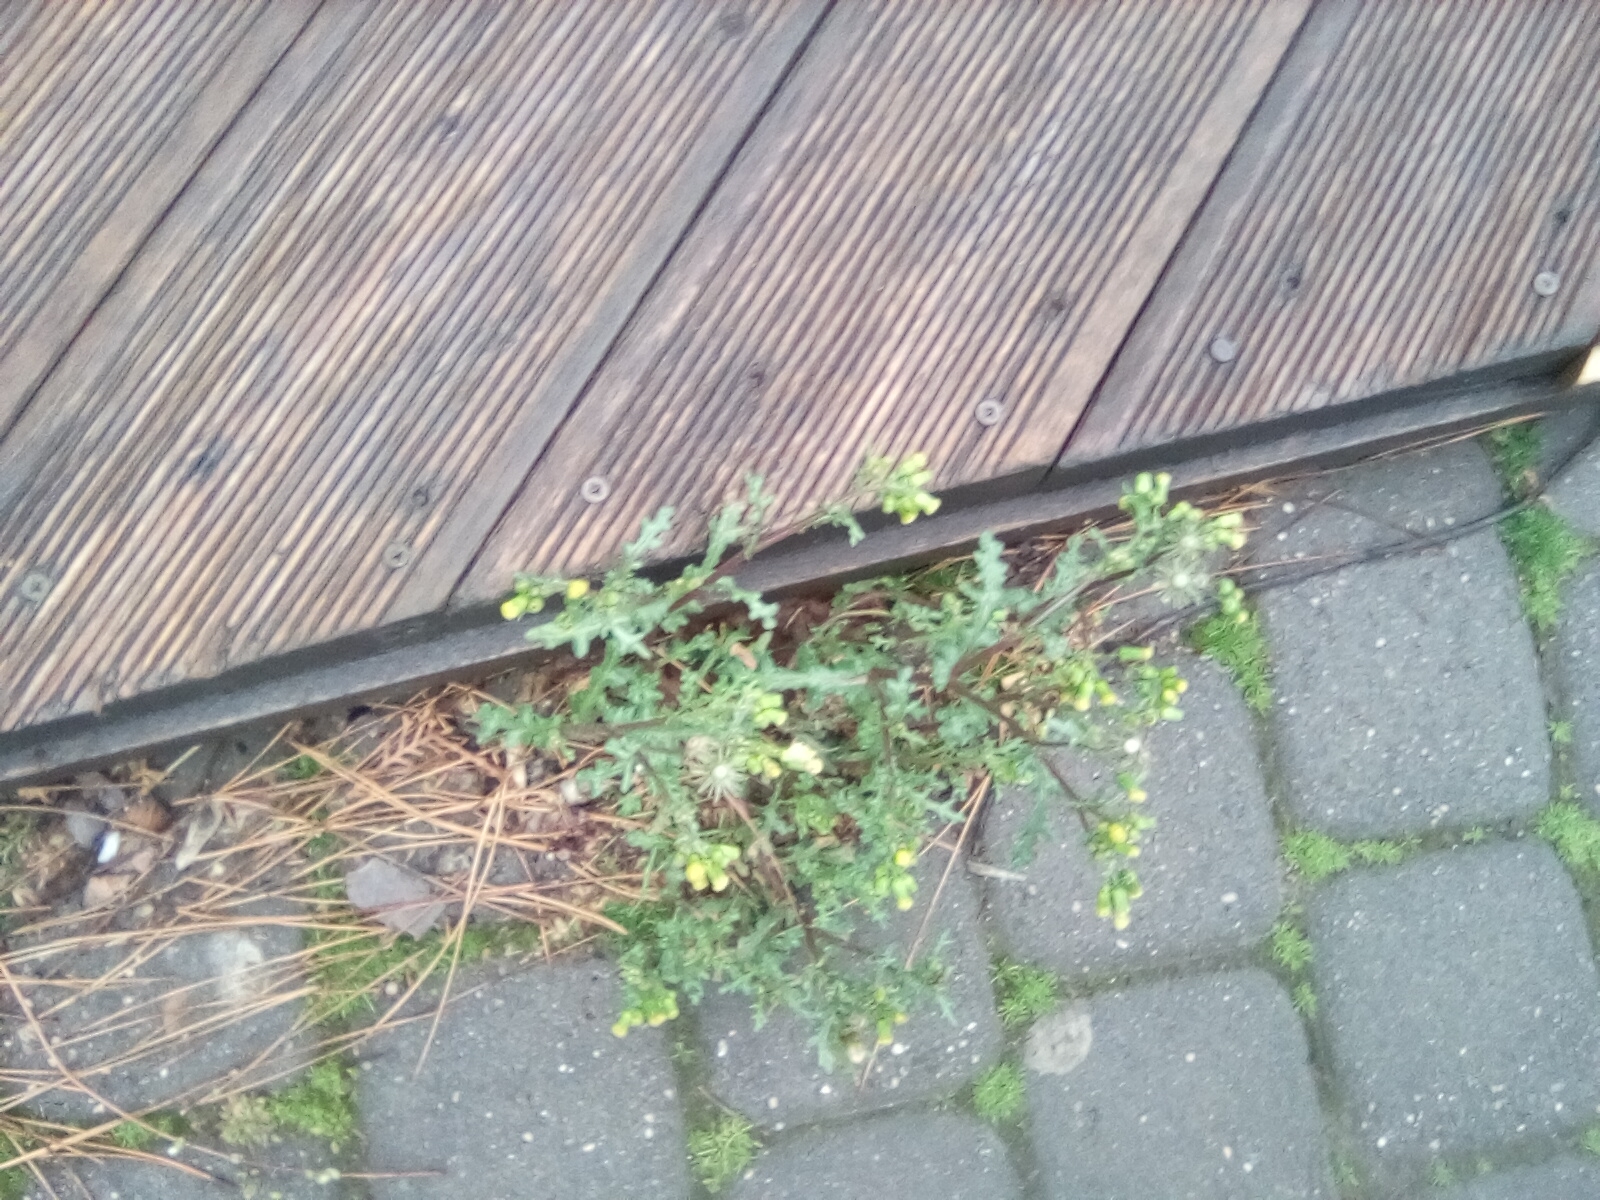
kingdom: Plantae
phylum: Tracheophyta
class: Magnoliopsida
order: Asterales
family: Asteraceae
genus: Senecio
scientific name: Senecio vulgaris
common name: Old-man-in-the-spring
